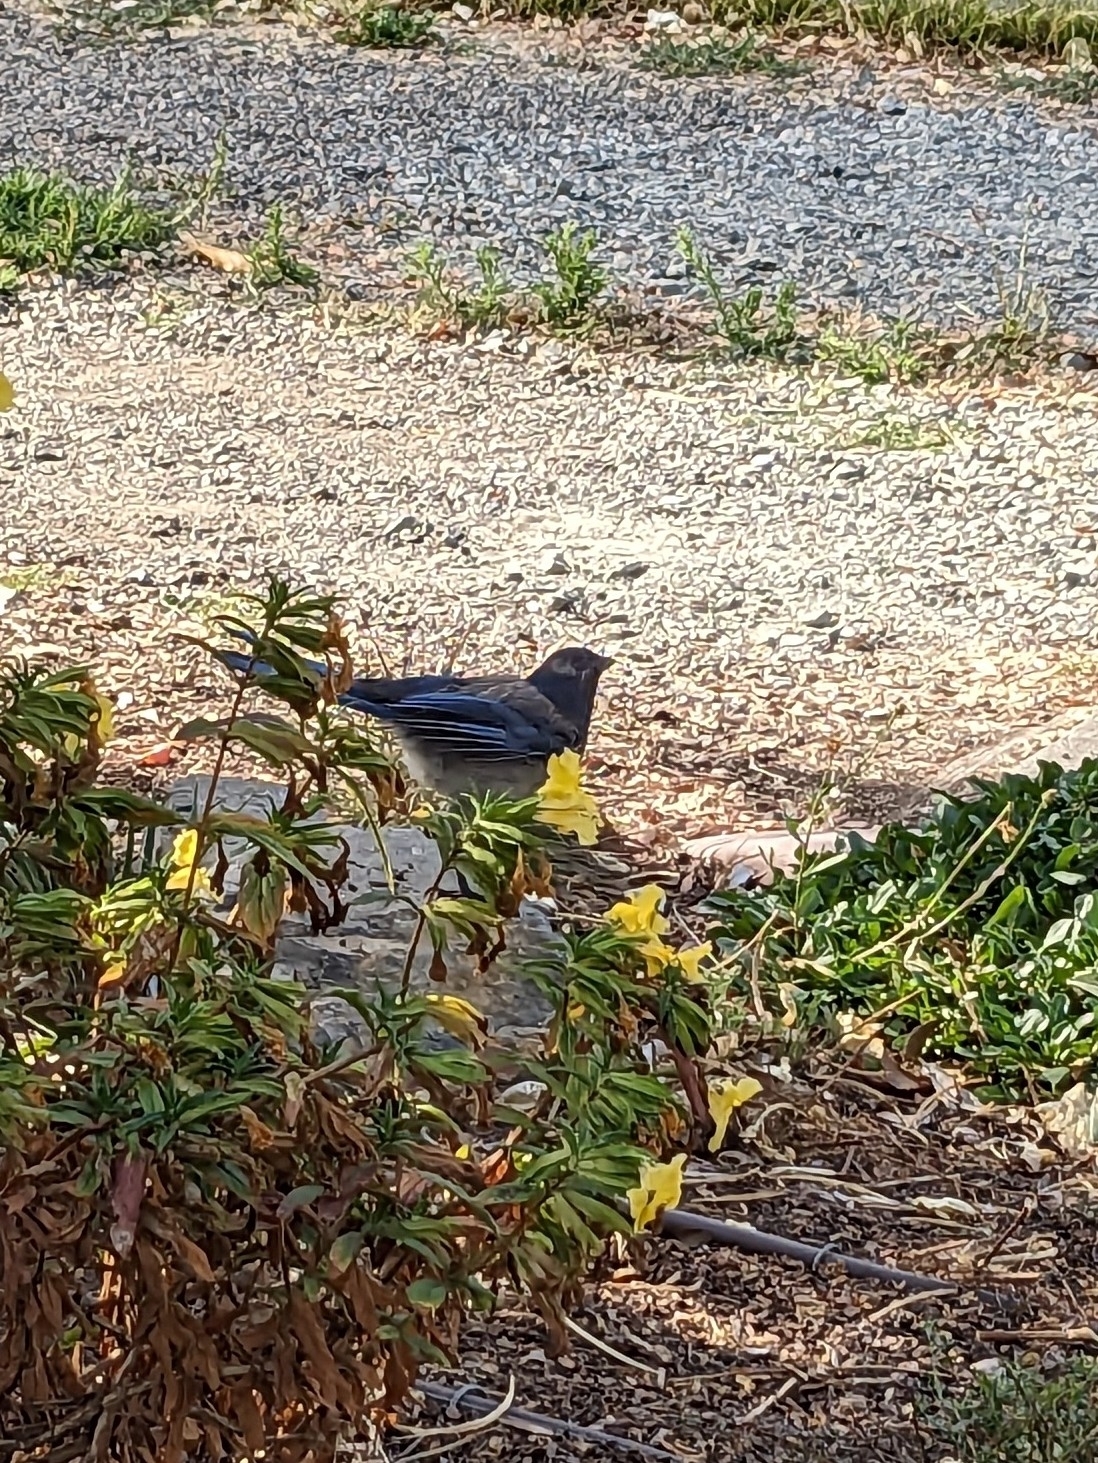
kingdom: Animalia
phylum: Chordata
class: Aves
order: Passeriformes
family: Corvidae
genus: Aphelocoma
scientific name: Aphelocoma californica
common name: California scrub-jay
